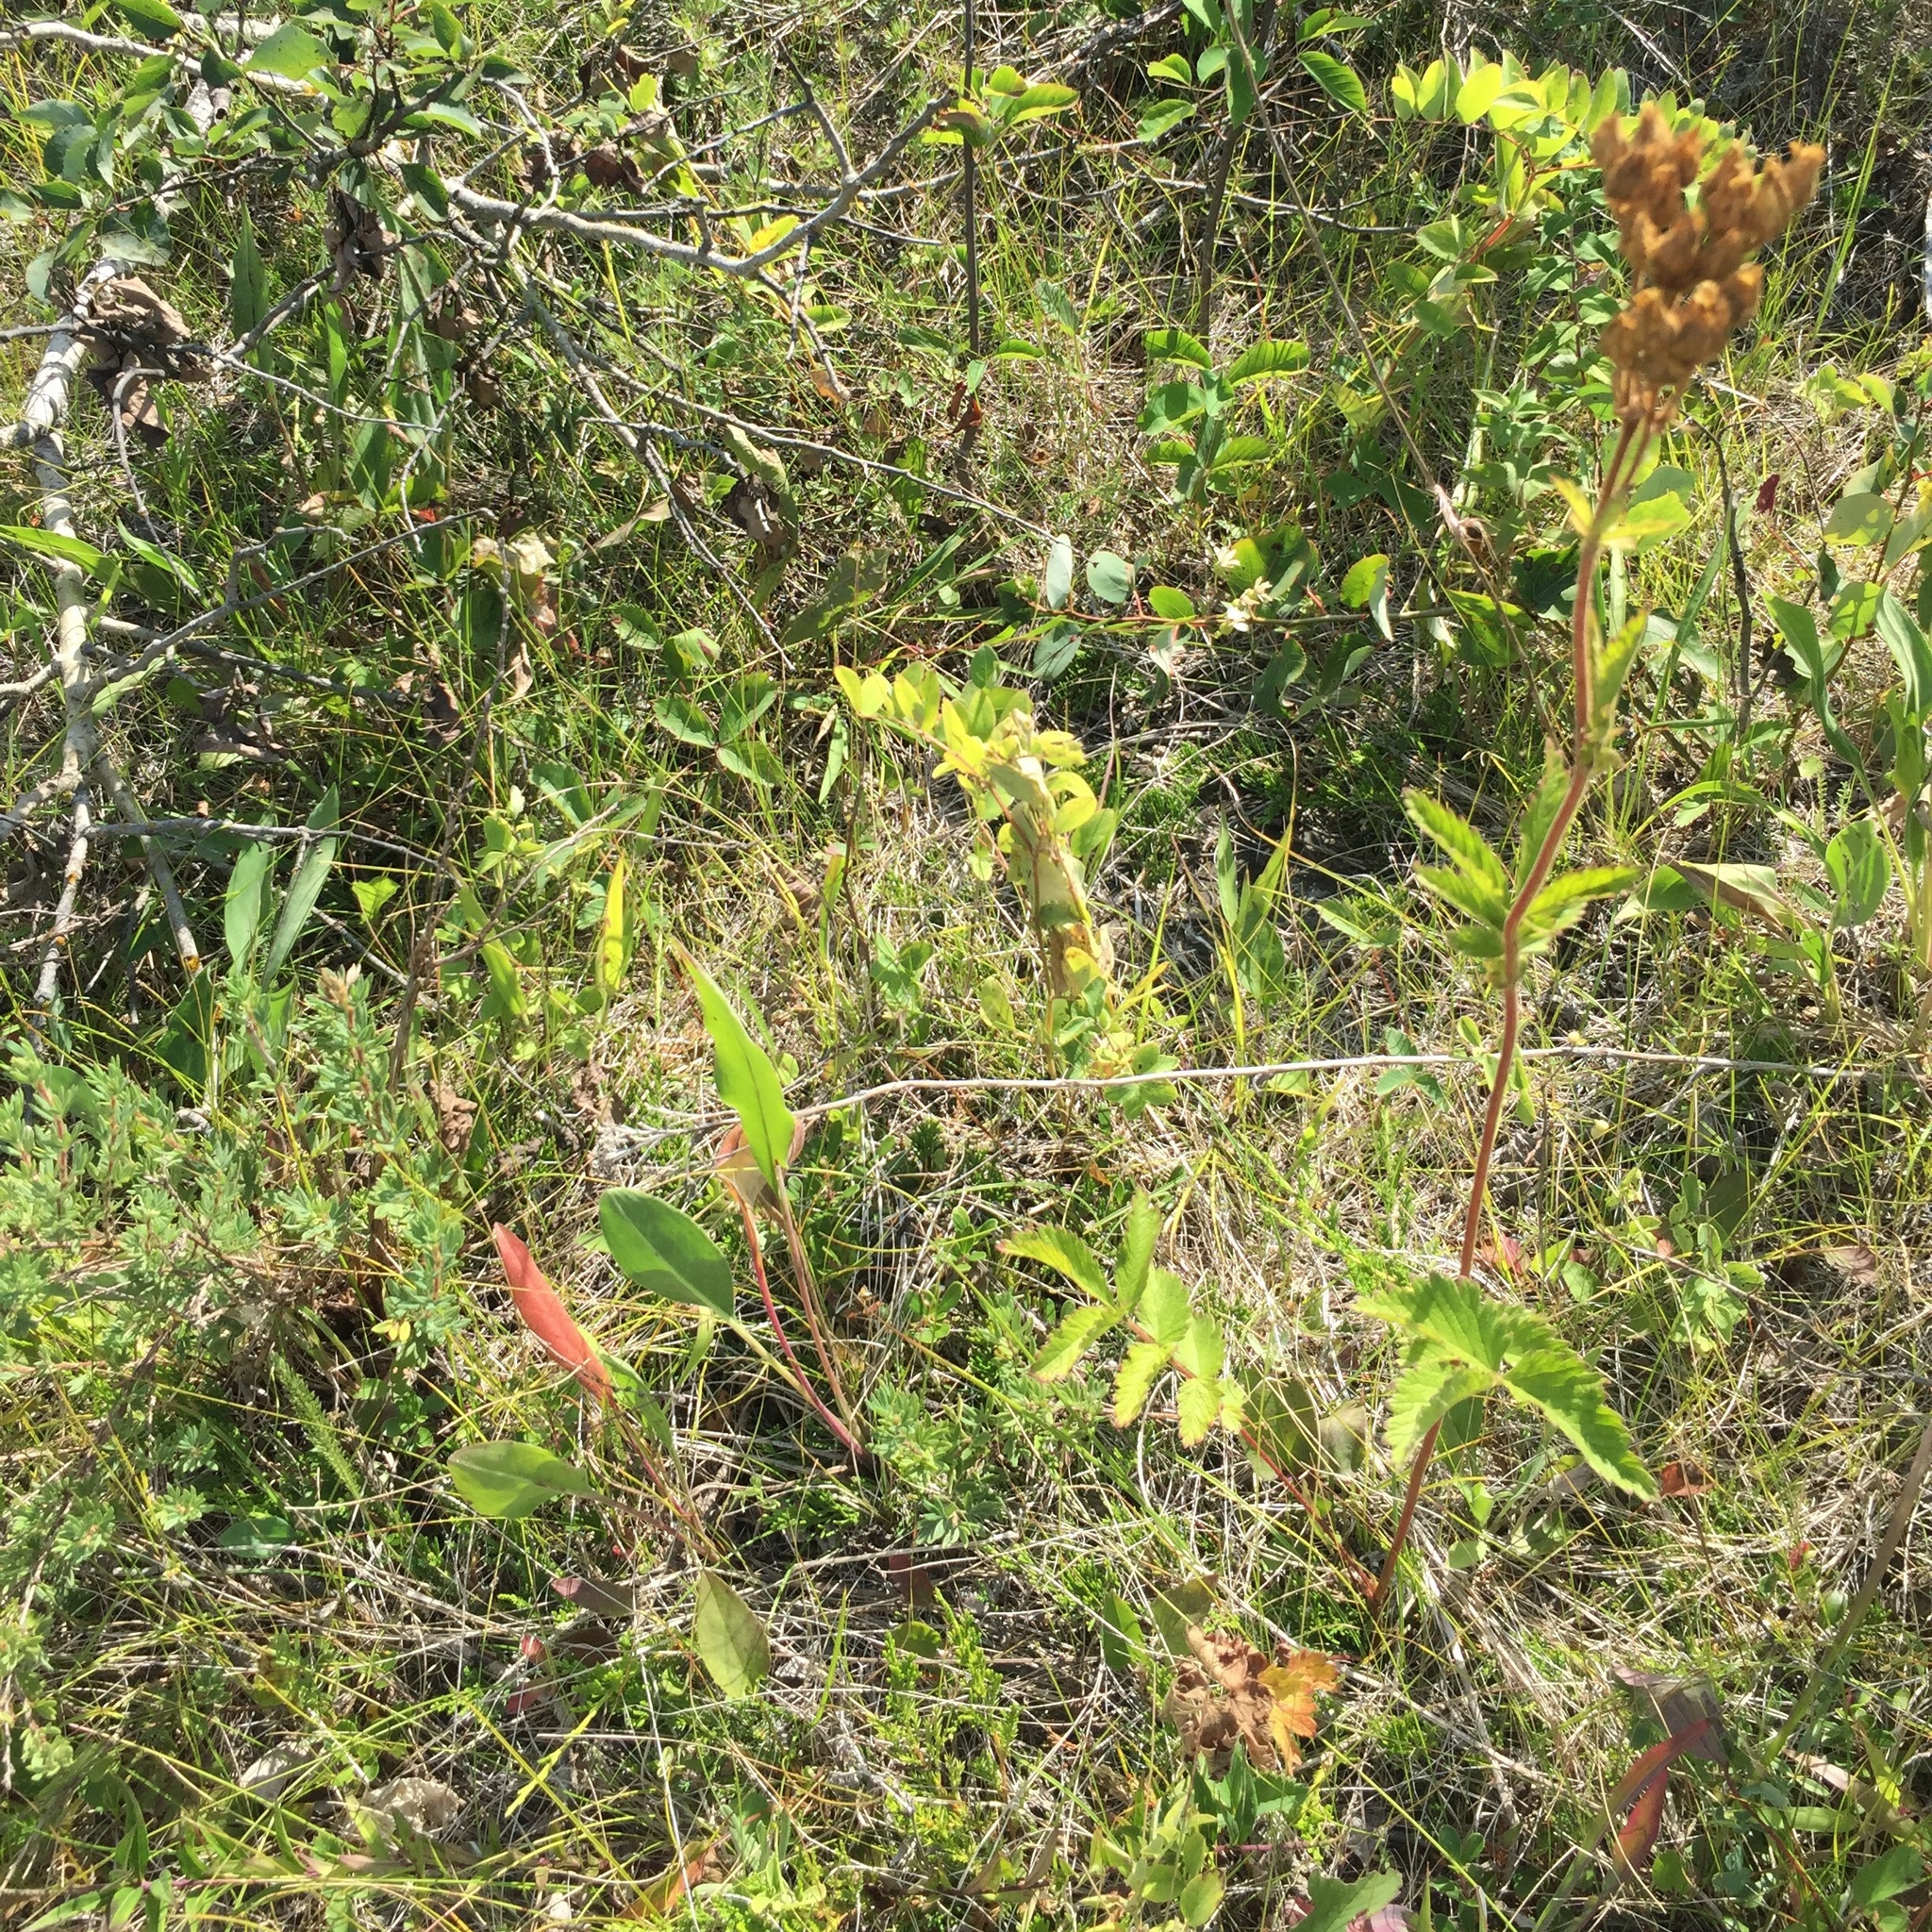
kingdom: Plantae
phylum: Tracheophyta
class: Magnoliopsida
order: Rosales
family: Rosaceae
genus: Drymocallis
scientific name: Drymocallis arguta
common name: Tall cinquefoil
